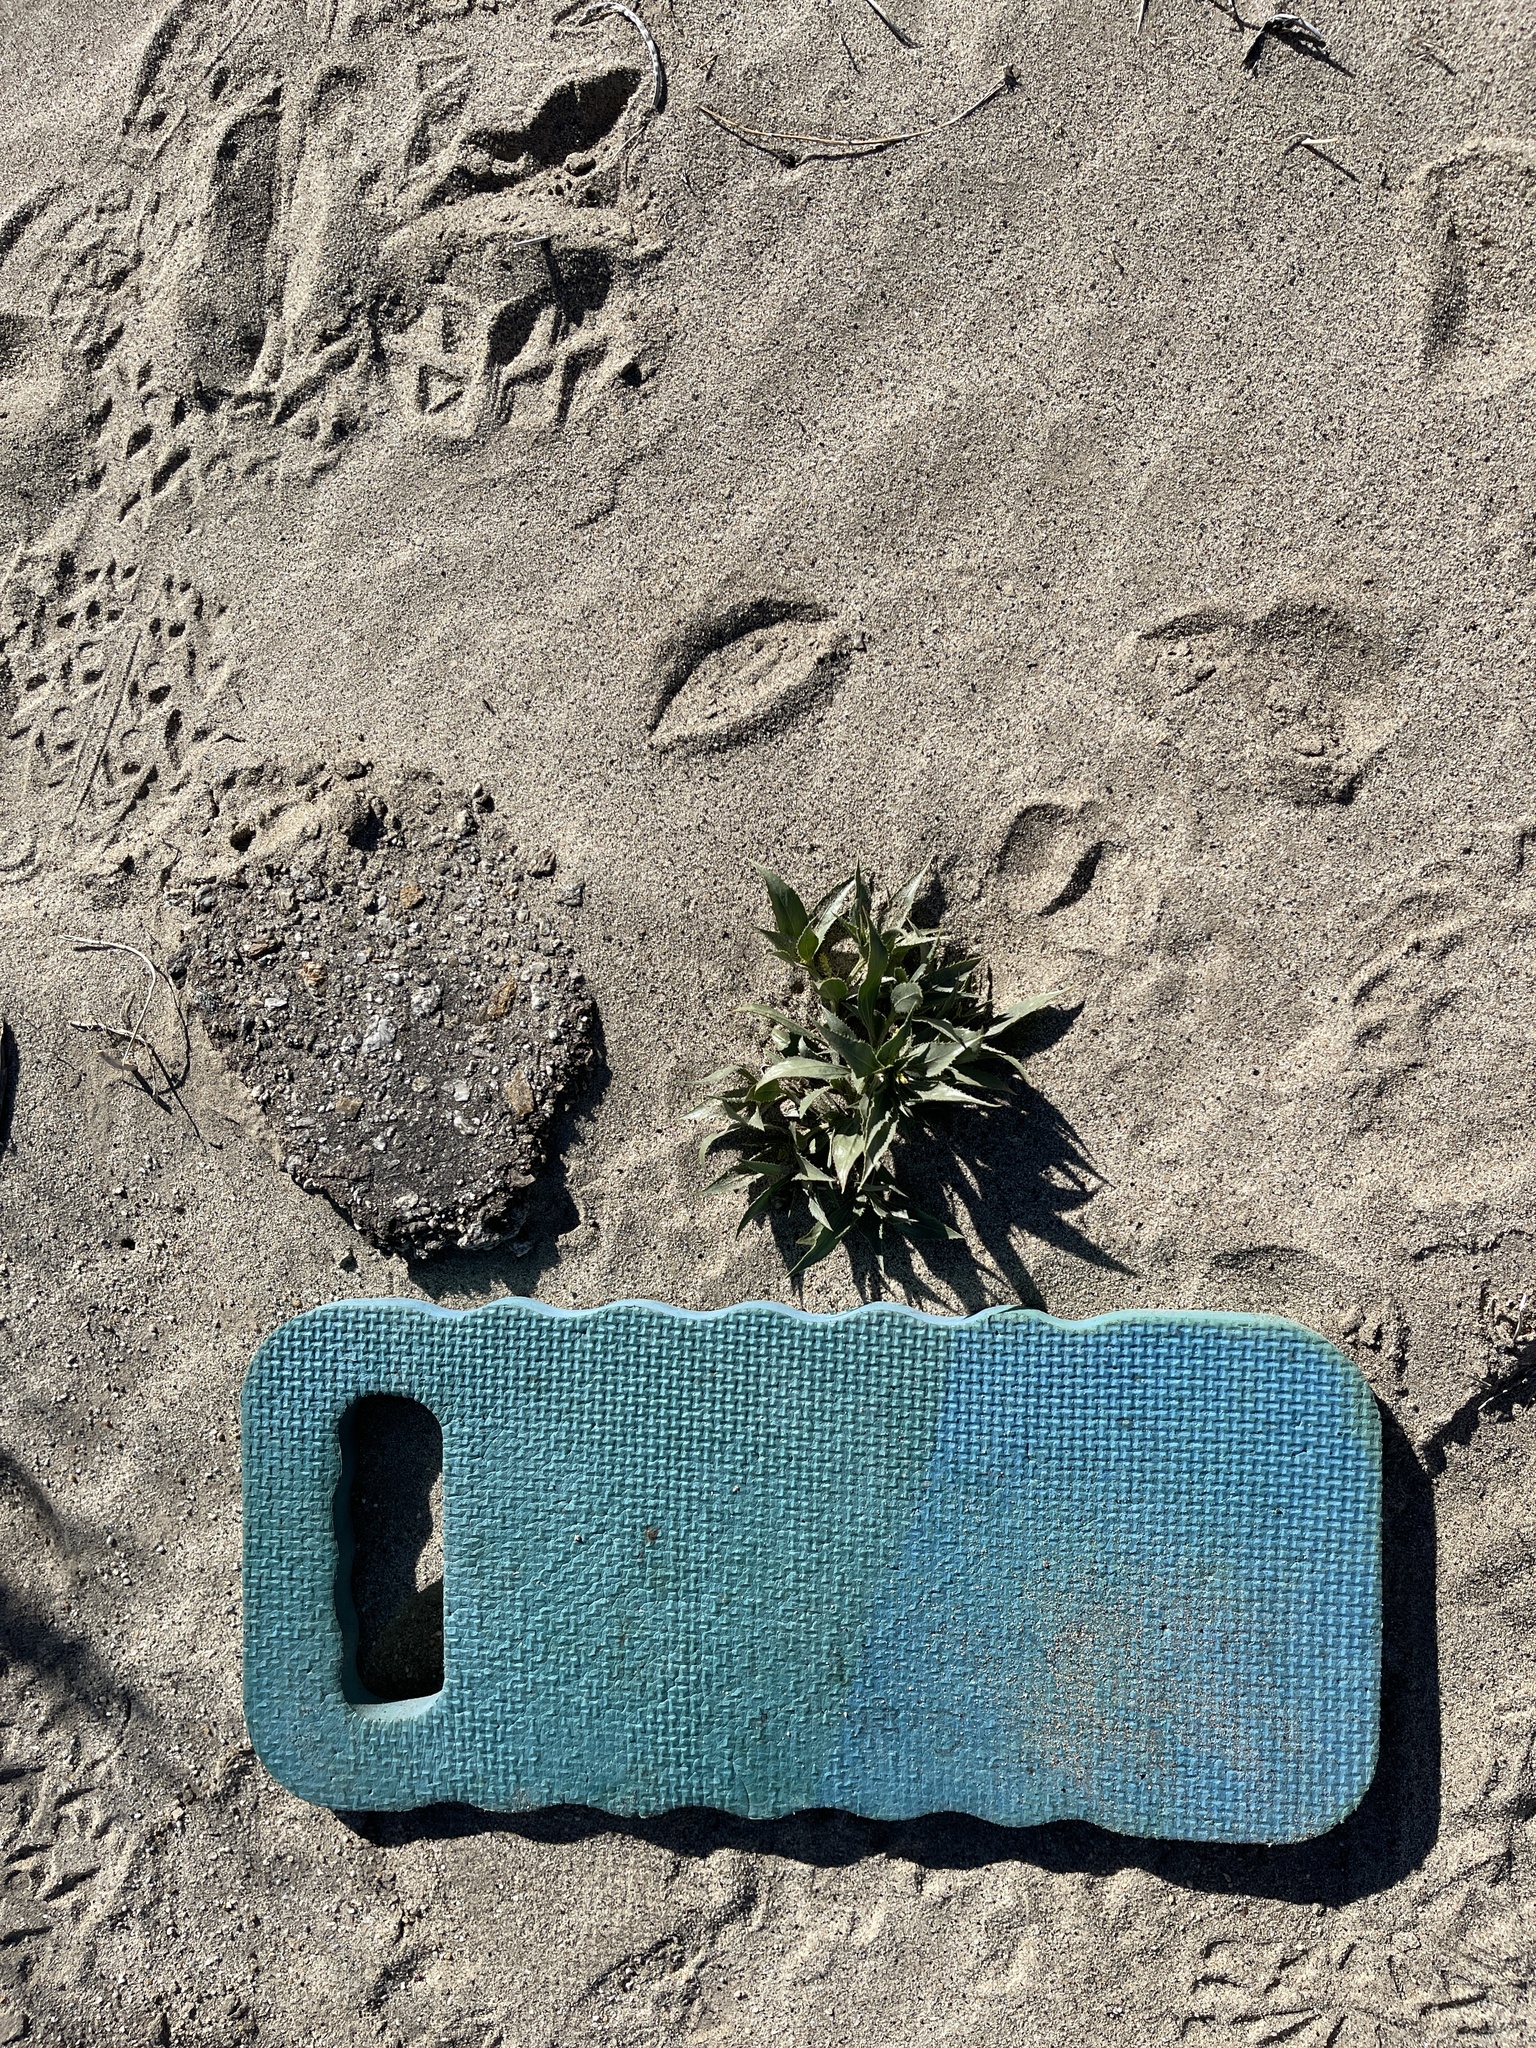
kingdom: Plantae
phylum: Tracheophyta
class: Magnoliopsida
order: Malpighiales
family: Euphorbiaceae
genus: Stillingia
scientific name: Stillingia spinulosa
